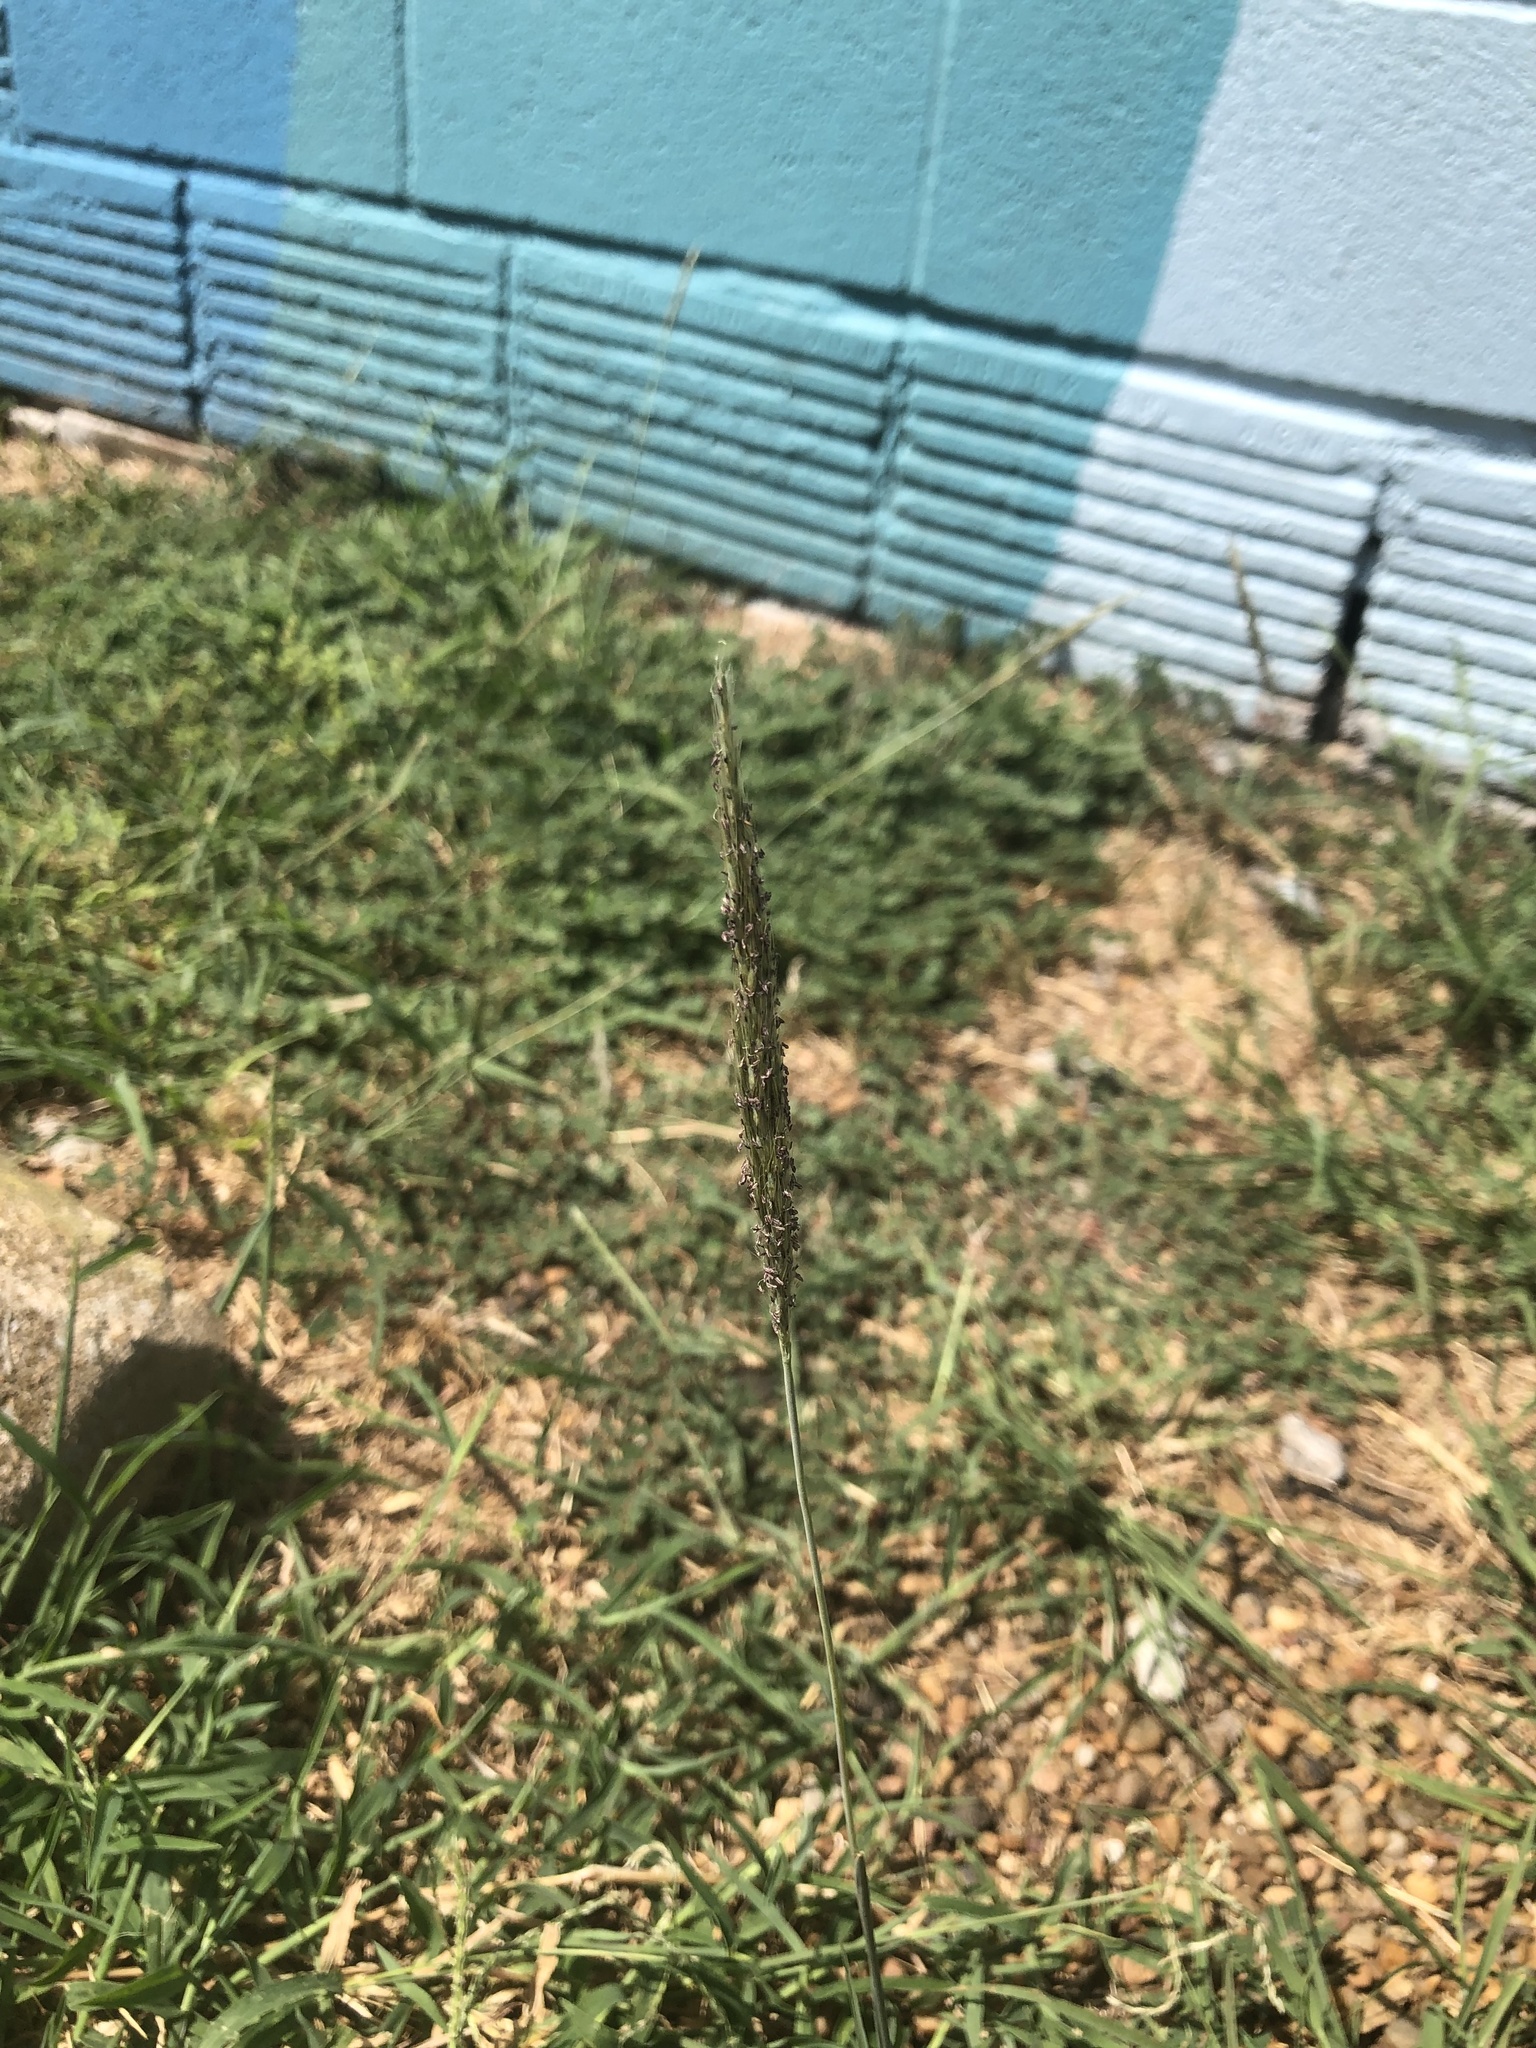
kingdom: Plantae
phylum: Tracheophyta
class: Liliopsida
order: Poales
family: Poaceae
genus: Bothriochloa
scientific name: Bothriochloa ischaemum
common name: Yellow bluestem
